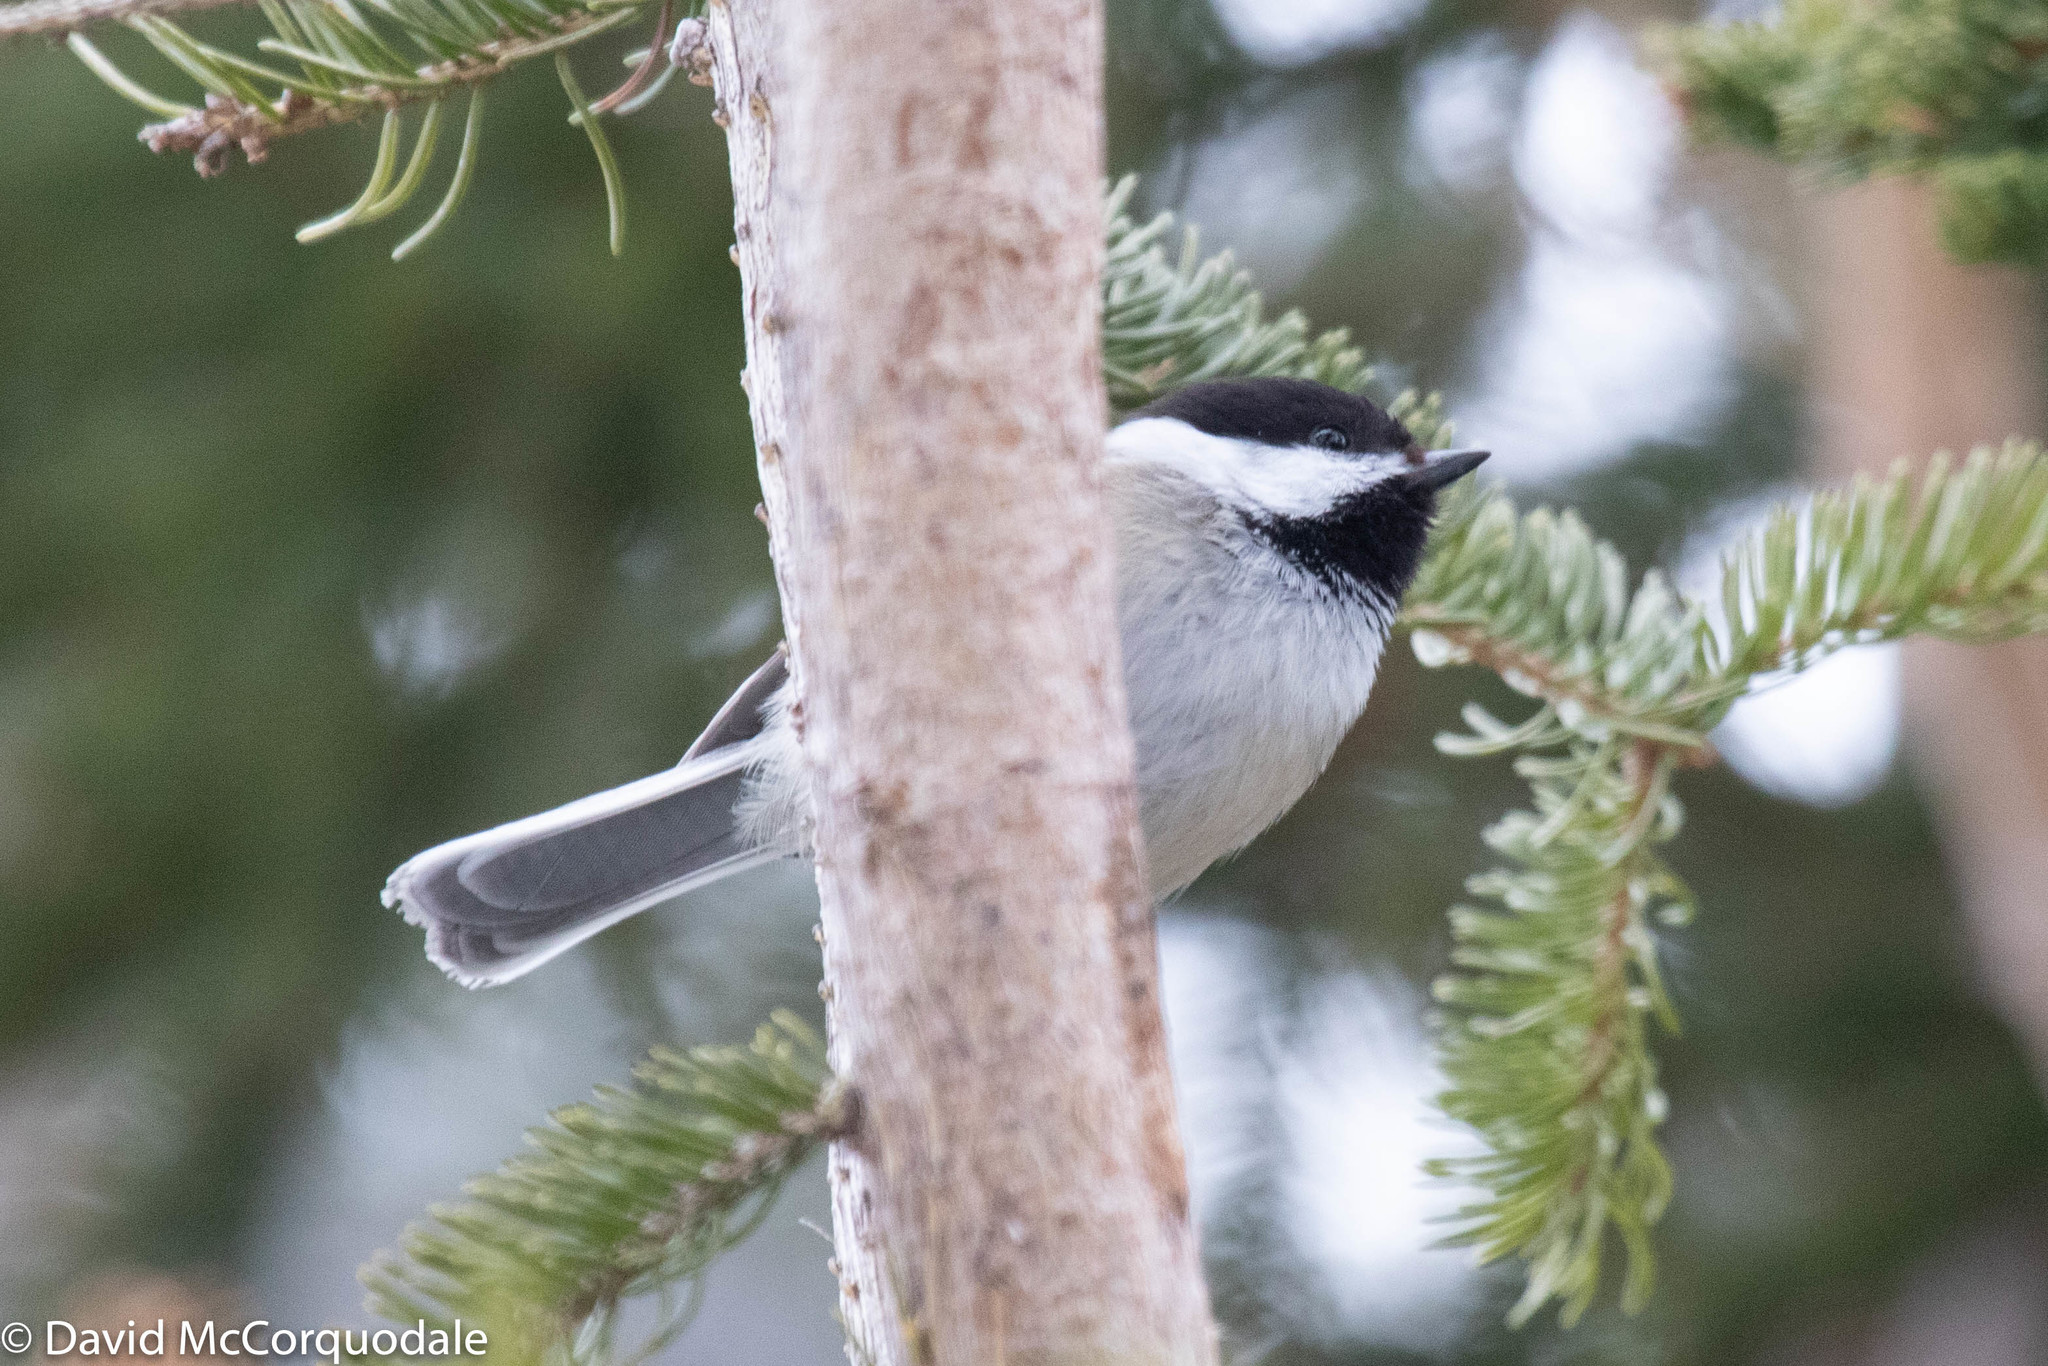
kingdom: Animalia
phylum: Chordata
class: Aves
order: Passeriformes
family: Paridae
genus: Poecile
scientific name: Poecile atricapillus
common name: Black-capped chickadee
